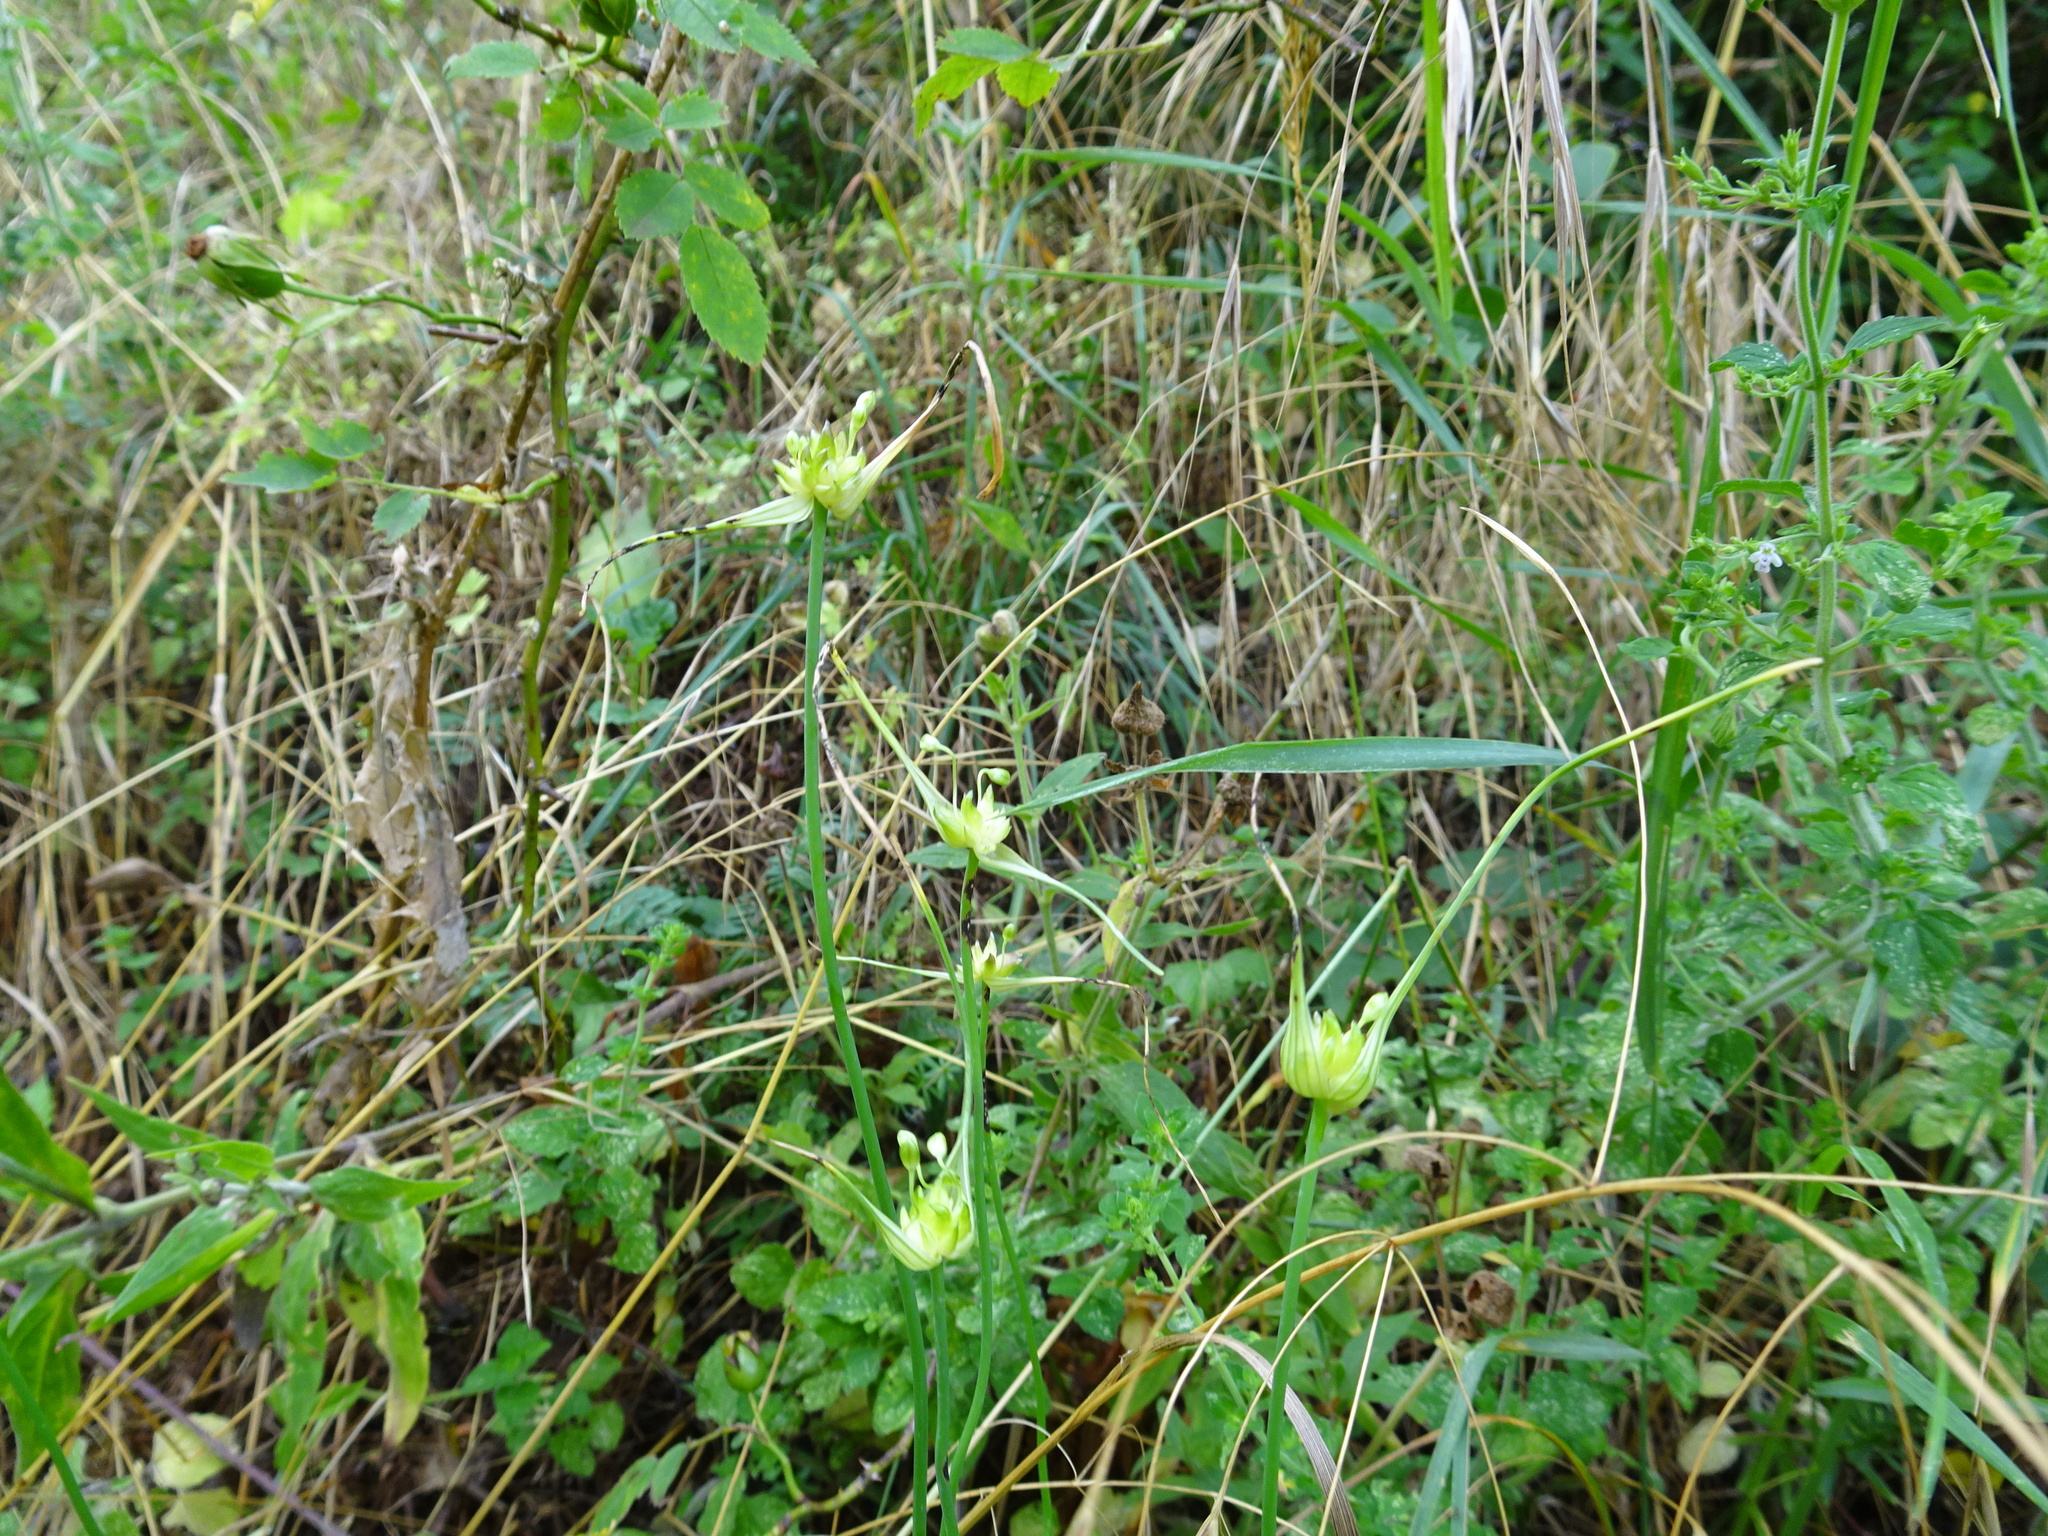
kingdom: Plantae
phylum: Tracheophyta
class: Liliopsida
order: Asparagales
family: Amaryllidaceae
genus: Allium
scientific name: Allium oleraceum
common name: Field garlic
